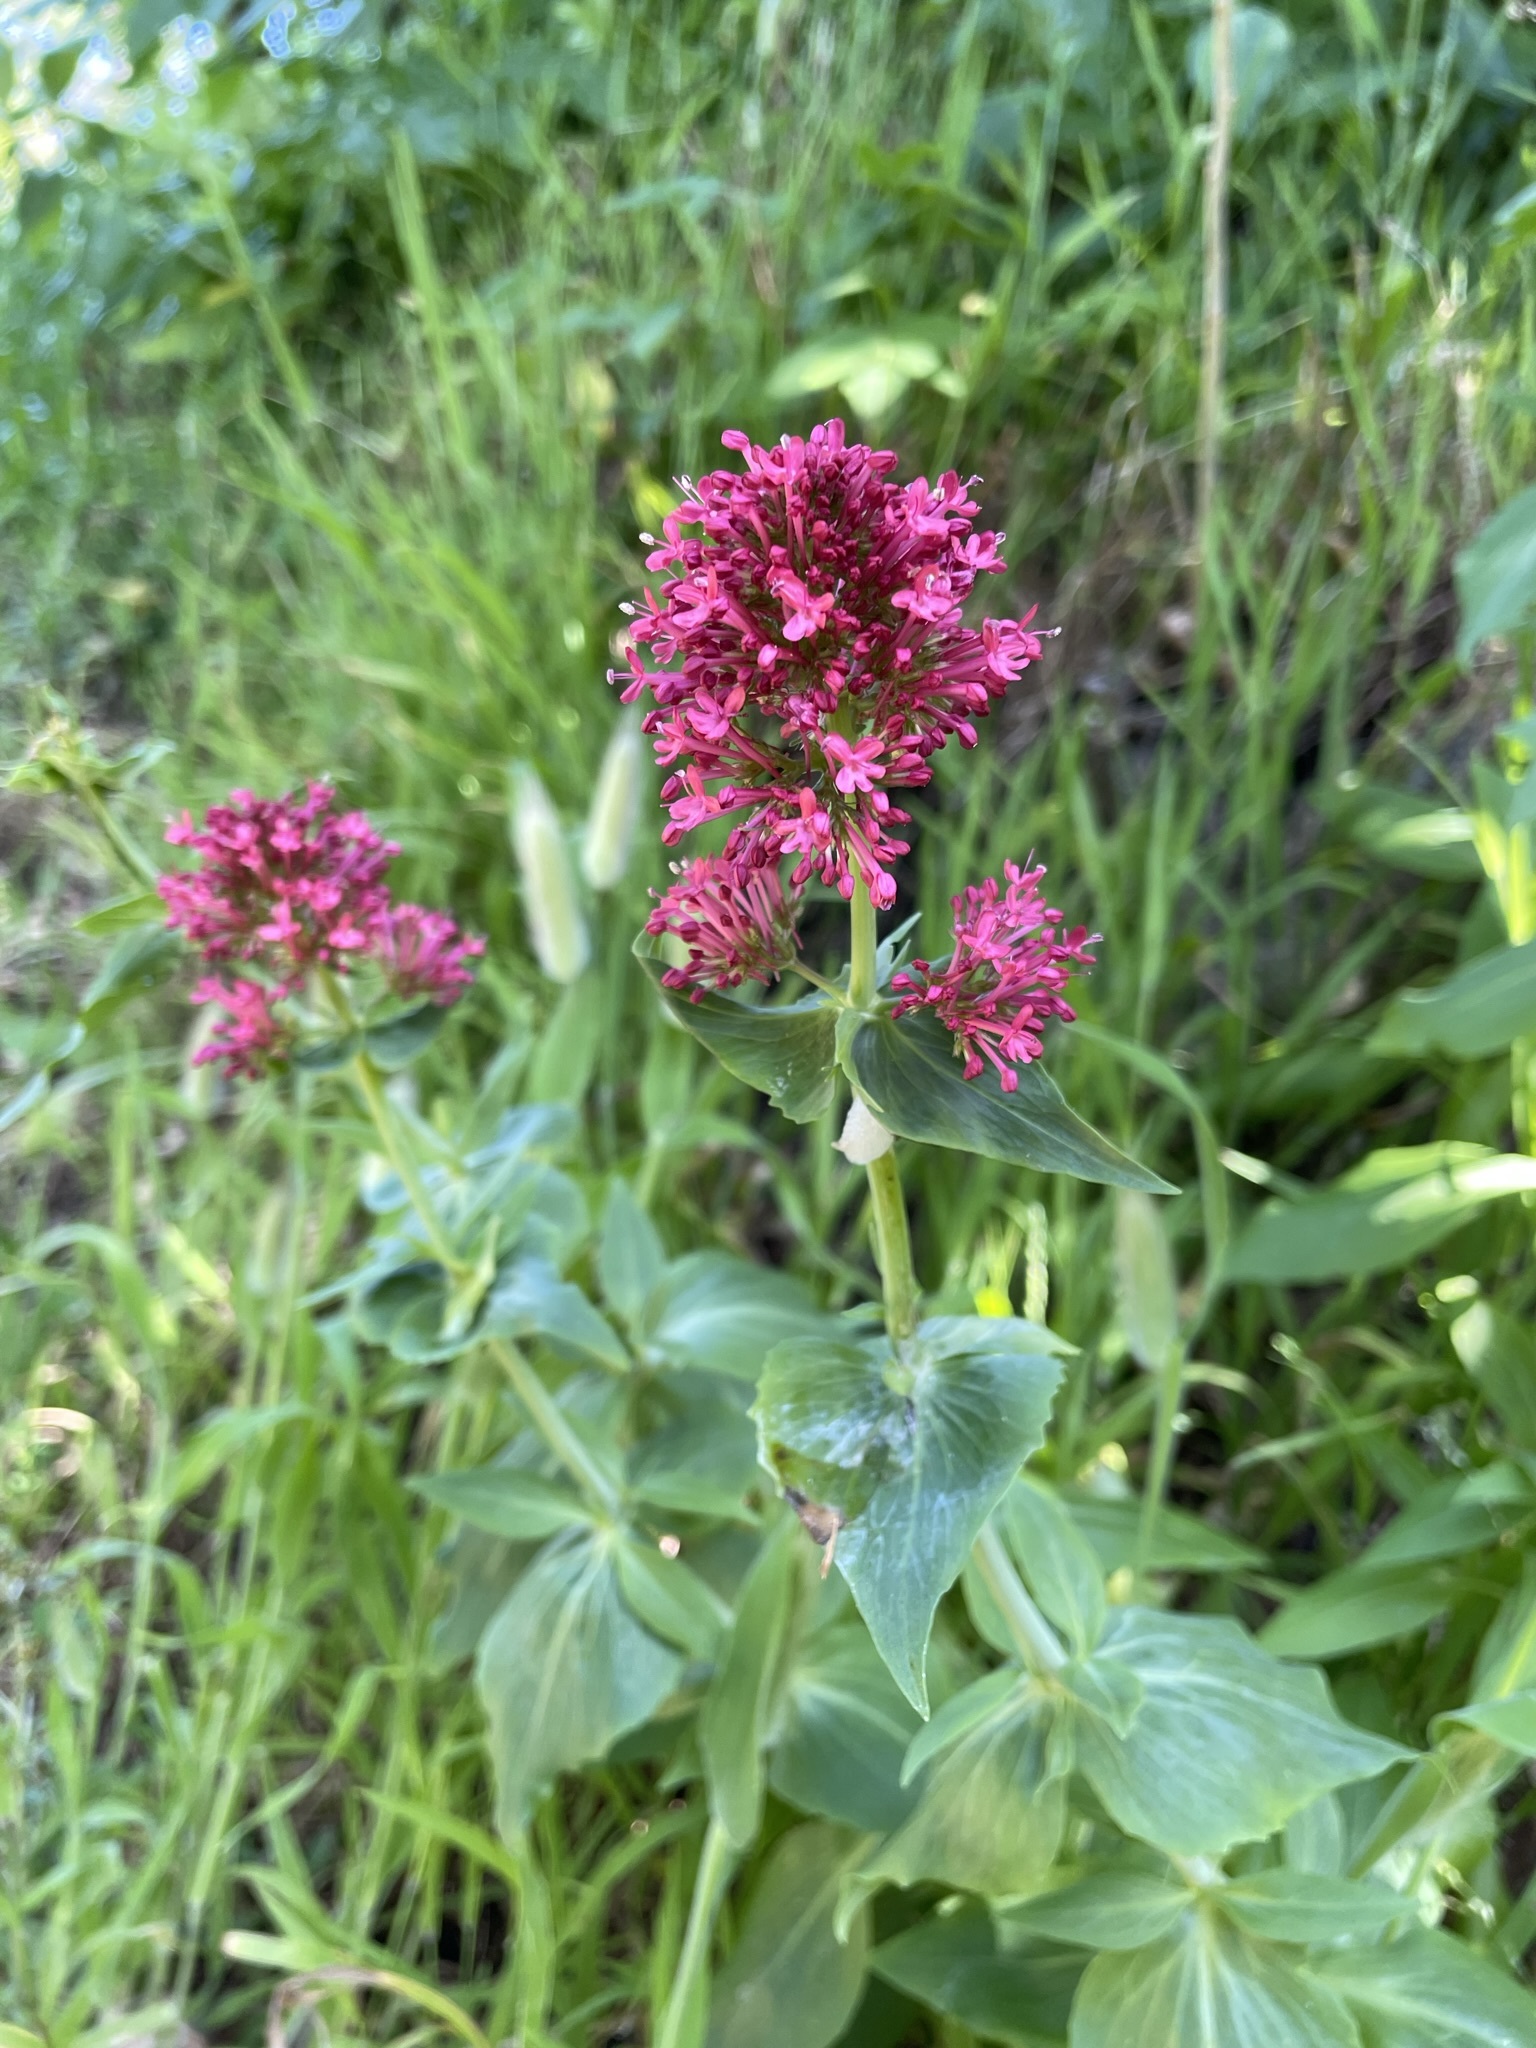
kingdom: Plantae
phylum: Tracheophyta
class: Magnoliopsida
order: Dipsacales
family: Caprifoliaceae
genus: Centranthus
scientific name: Centranthus ruber
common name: Red valerian
